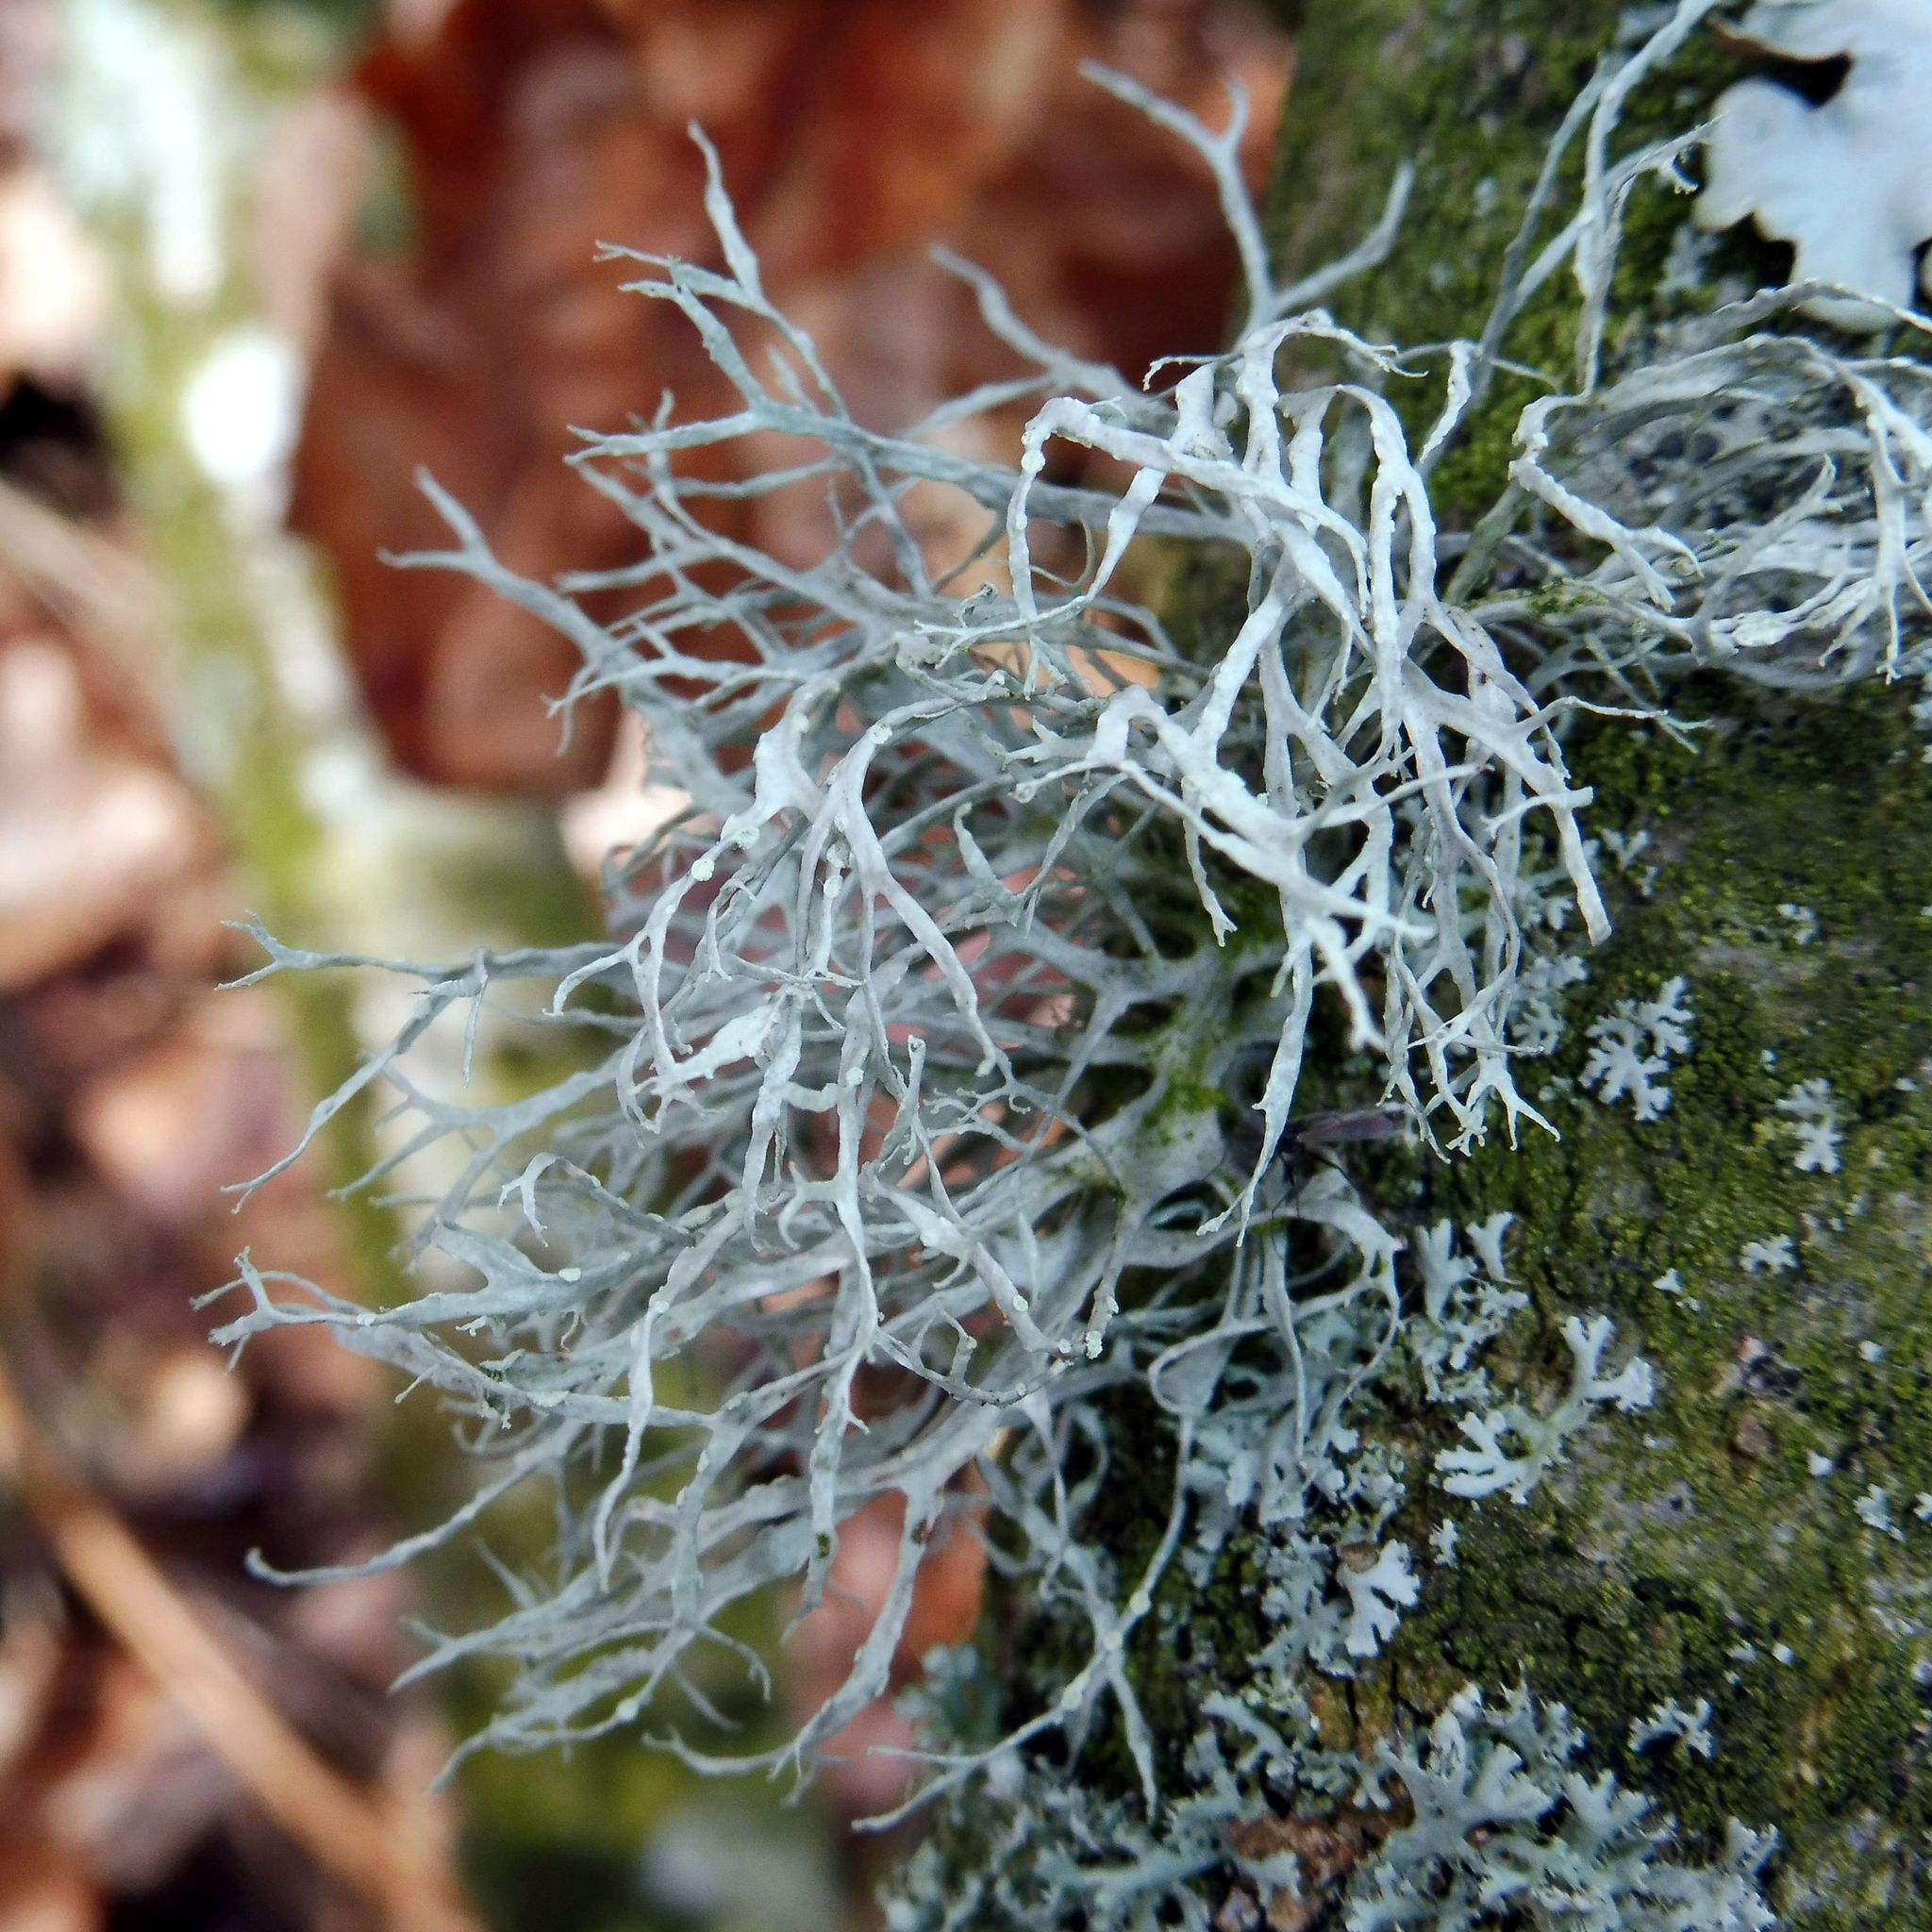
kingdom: Fungi
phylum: Ascomycota
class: Lecanoromycetes
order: Lecanorales
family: Ramalinaceae
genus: Ramalina
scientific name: Ramalina farinacea
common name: Farinose cartilage lichen
